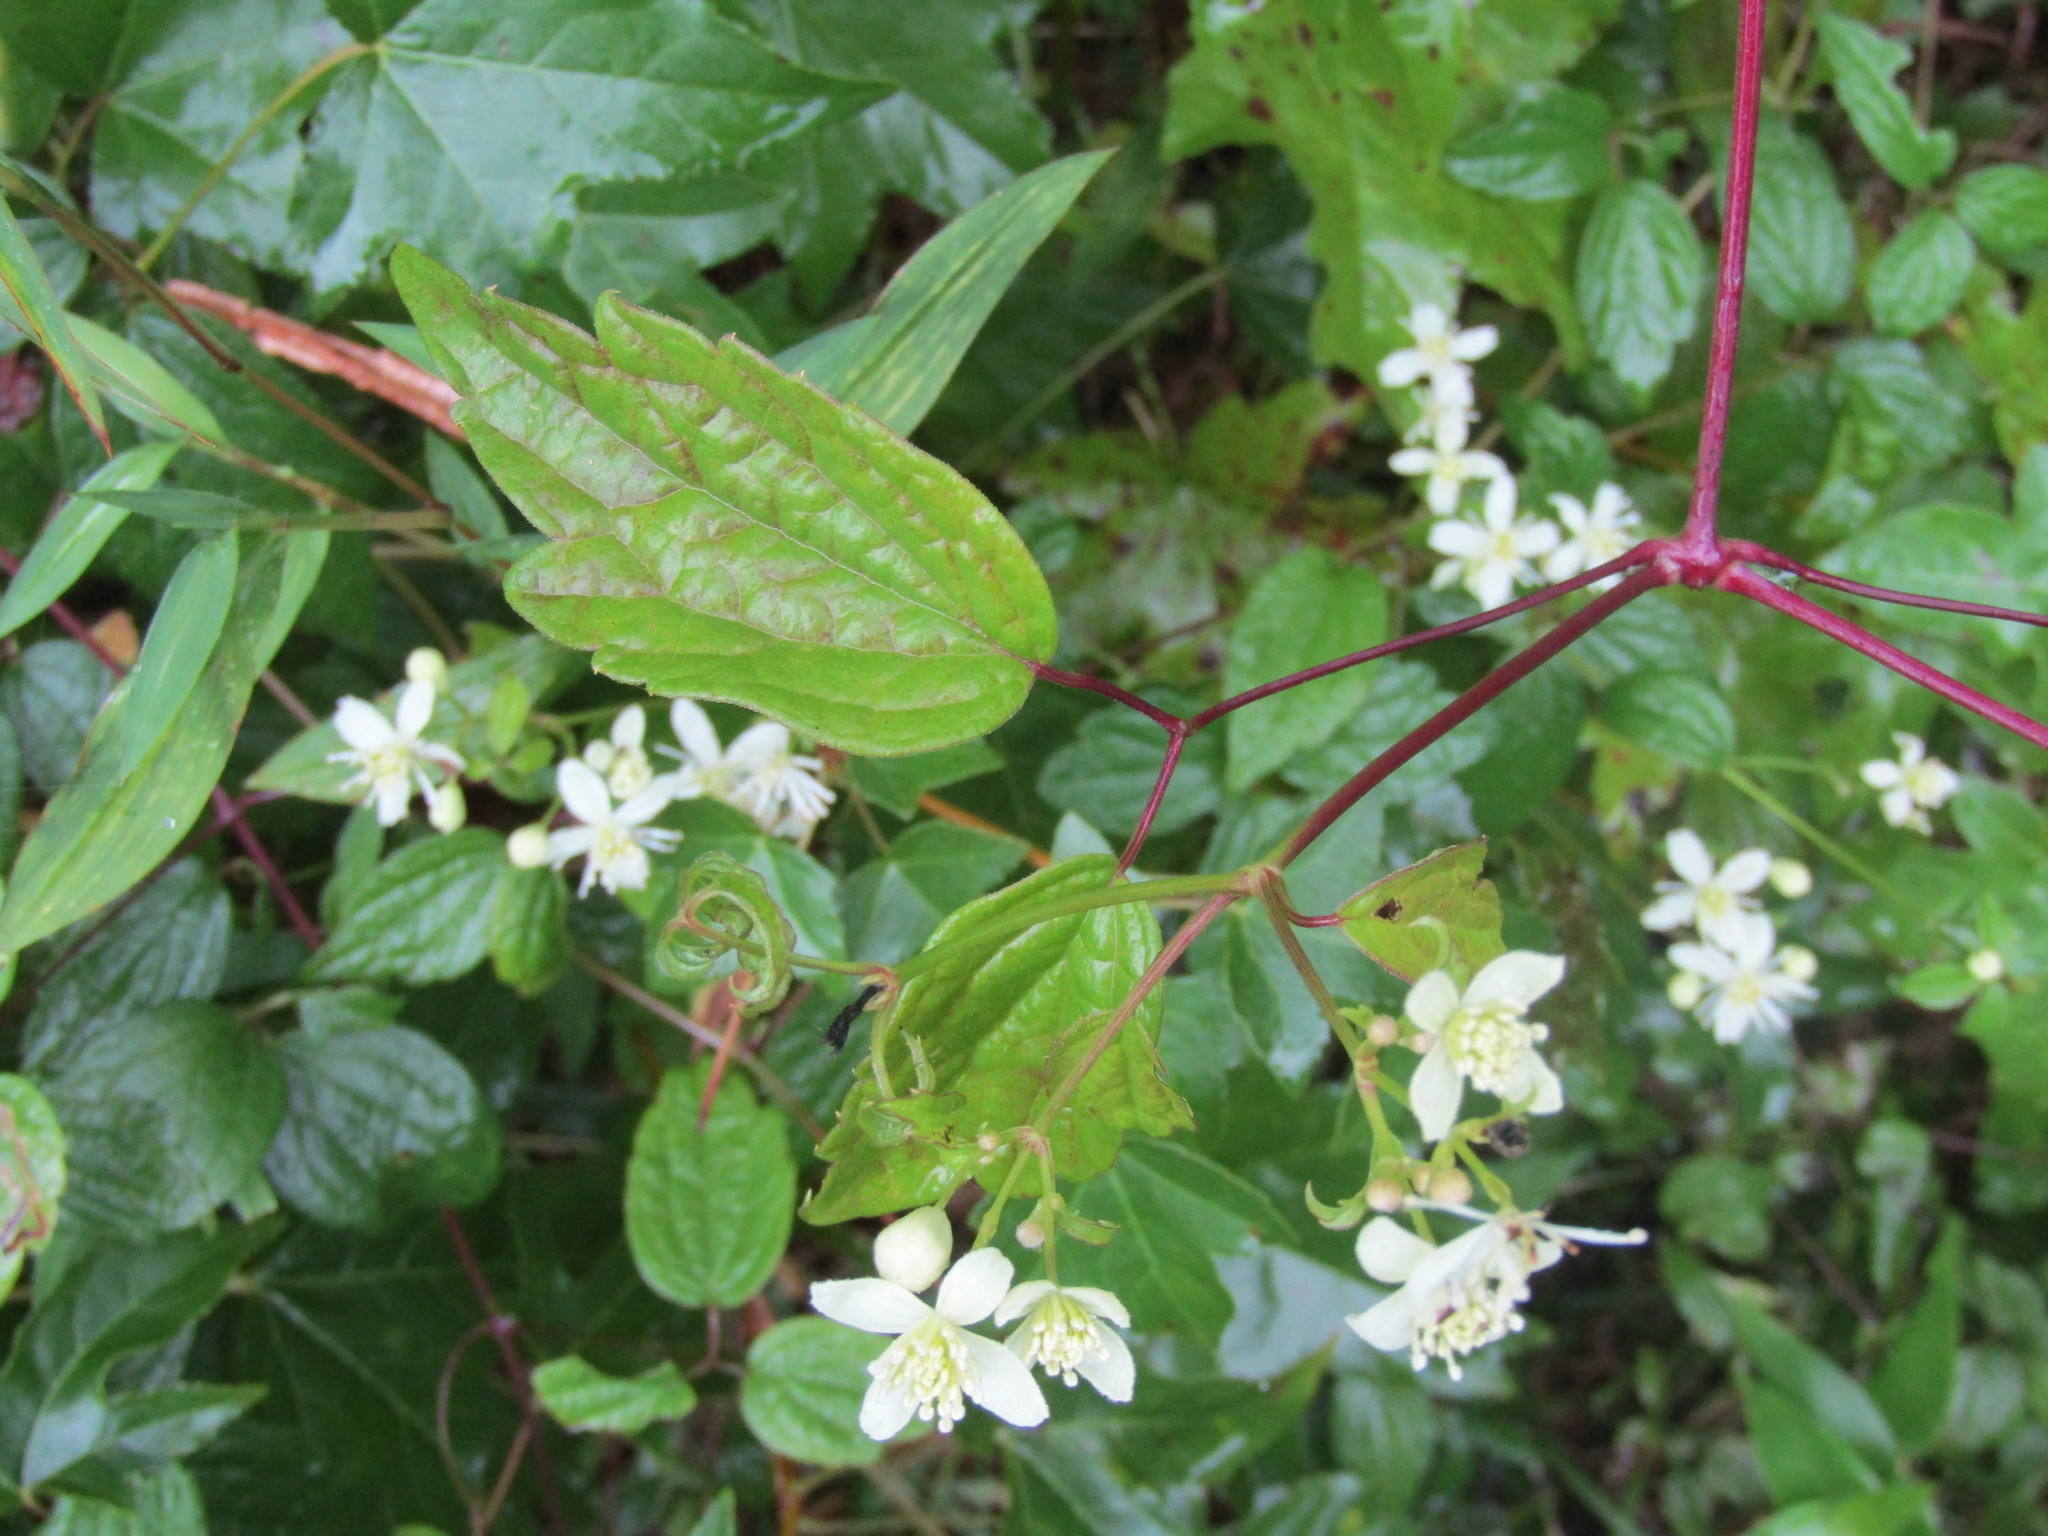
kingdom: Plantae
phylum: Tracheophyta
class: Magnoliopsida
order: Ranunculales
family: Ranunculaceae
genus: Clematis
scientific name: Clematis virginiana
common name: Virgin's-bower
